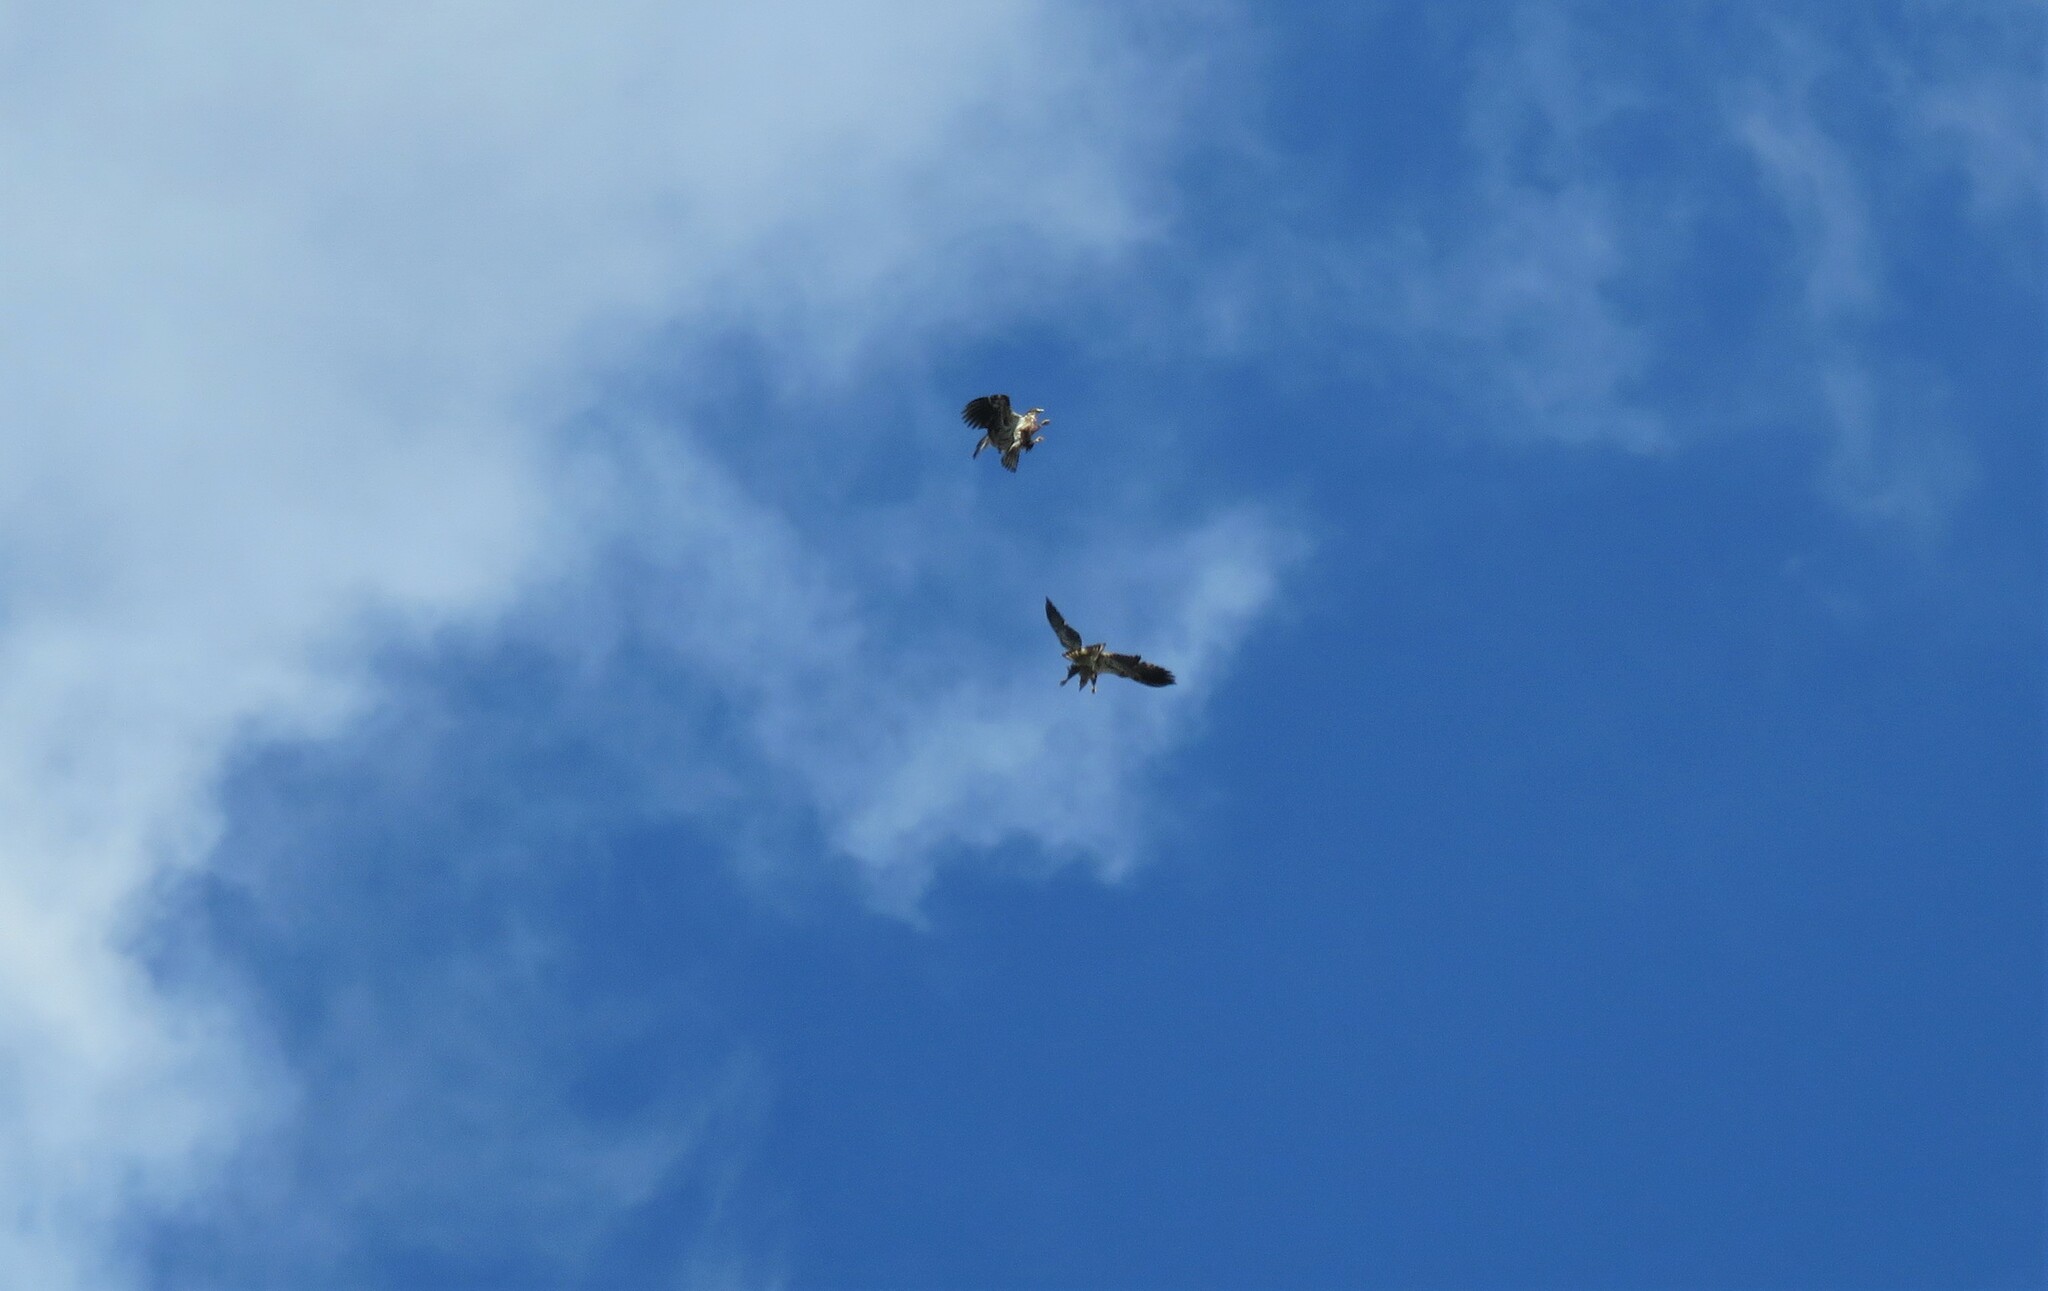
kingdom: Animalia
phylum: Chordata
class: Aves
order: Accipitriformes
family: Accipitridae
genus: Haliaeetus
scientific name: Haliaeetus leucocephalus
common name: Bald eagle
